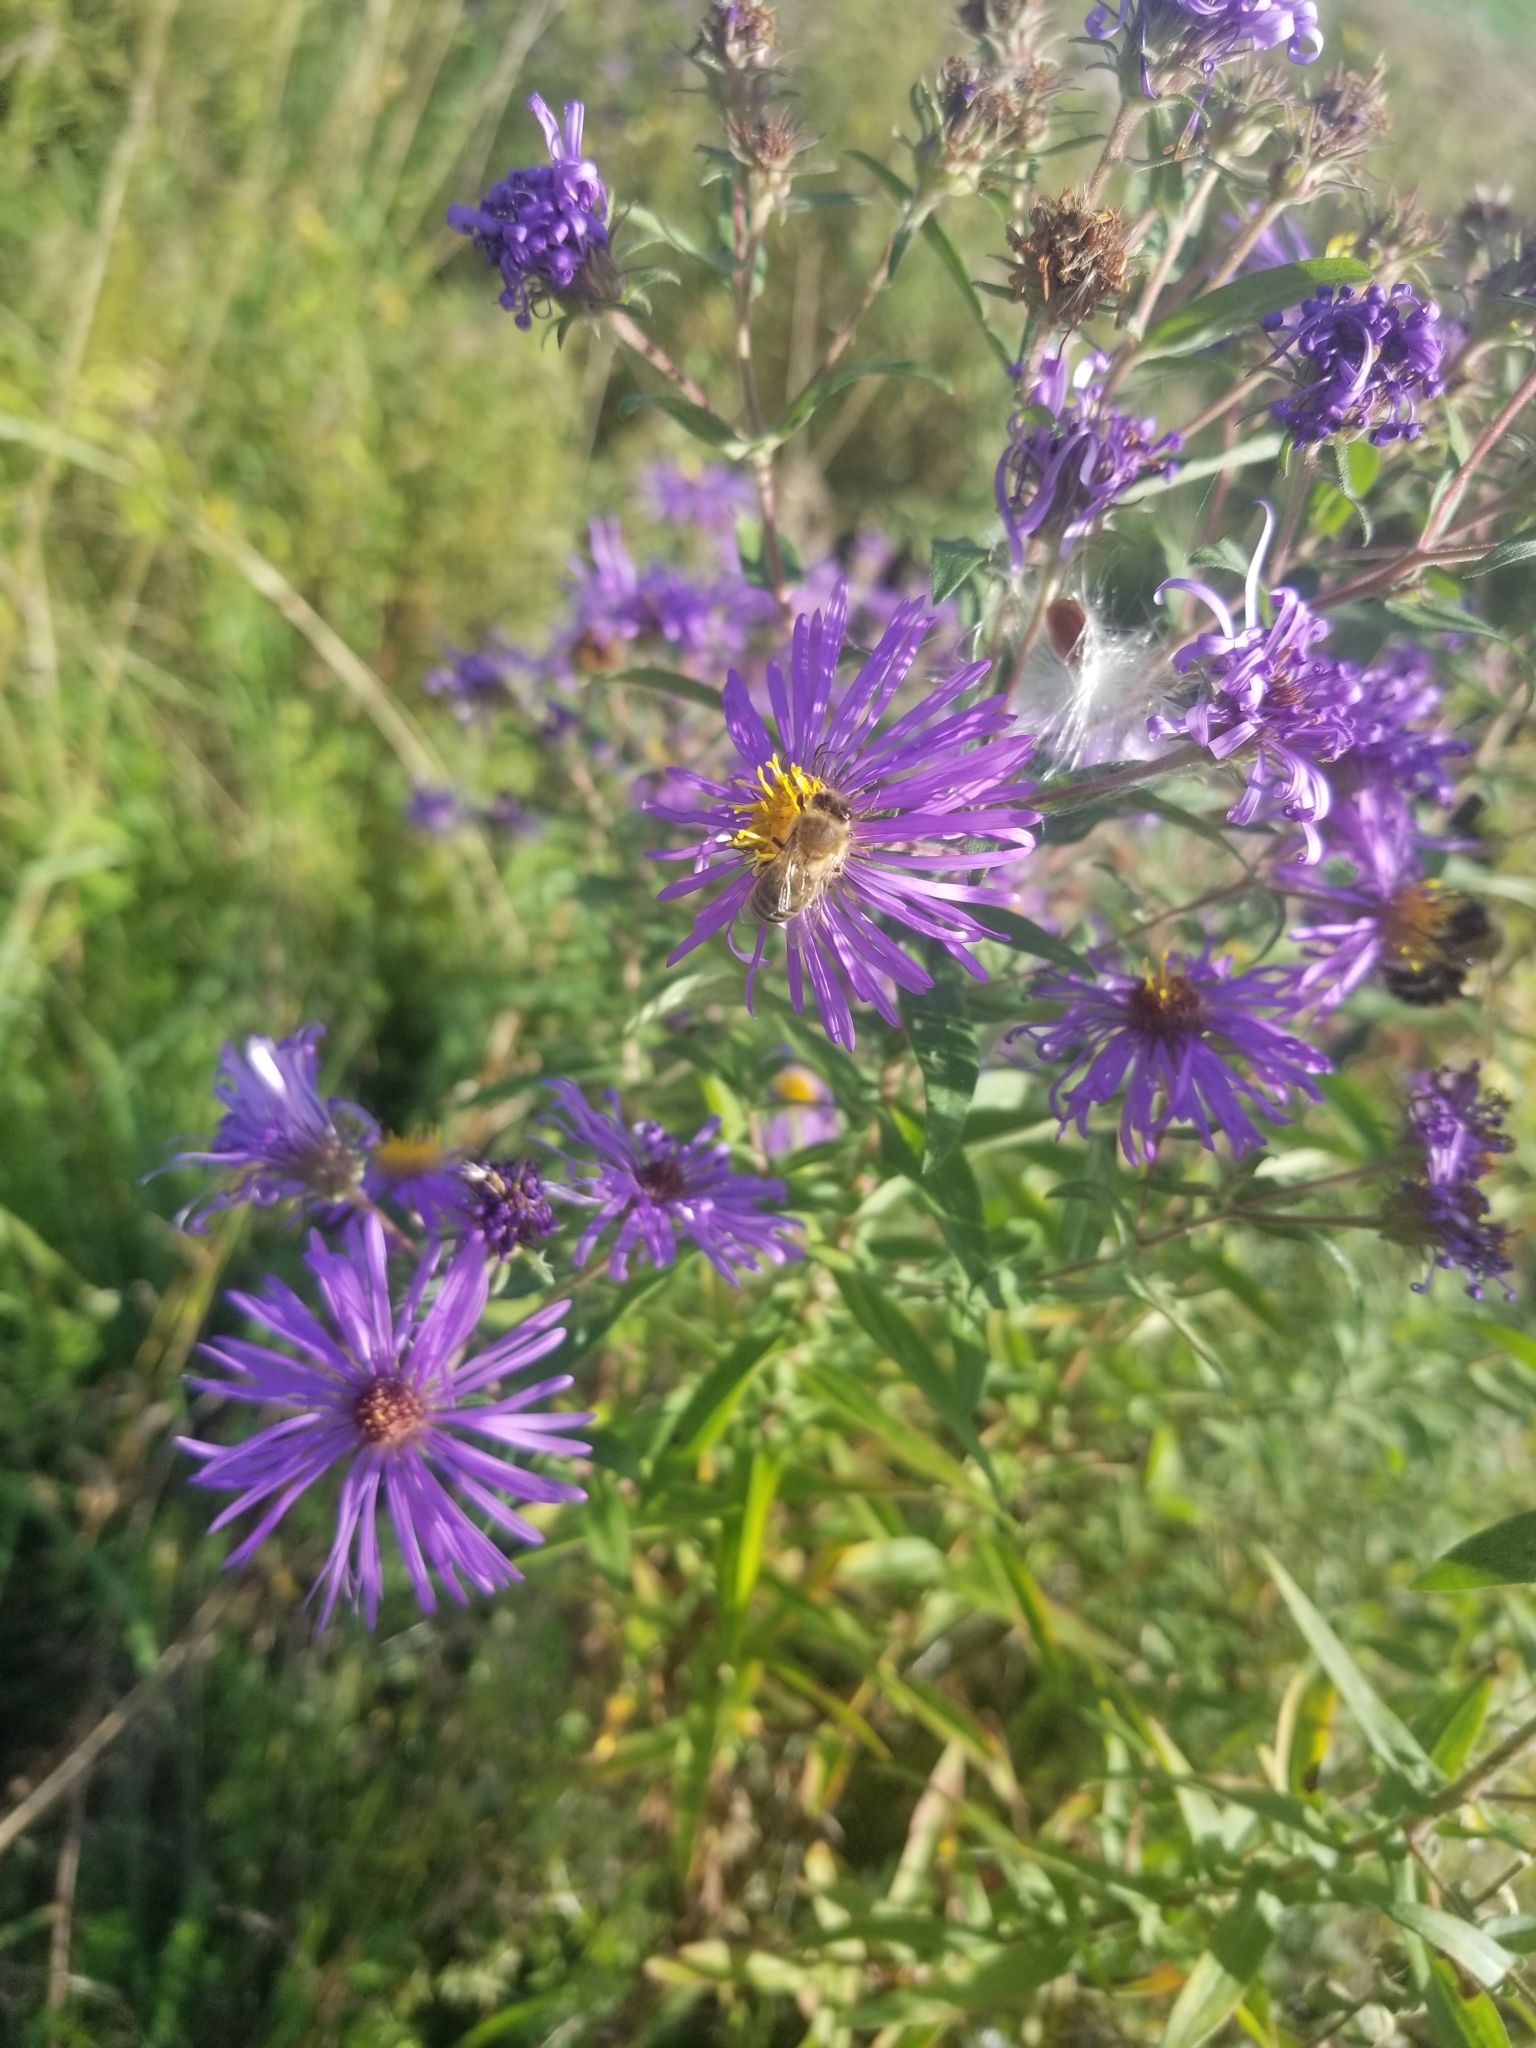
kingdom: Animalia
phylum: Arthropoda
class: Insecta
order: Hymenoptera
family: Apidae
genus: Apis
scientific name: Apis mellifera
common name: Honey bee
